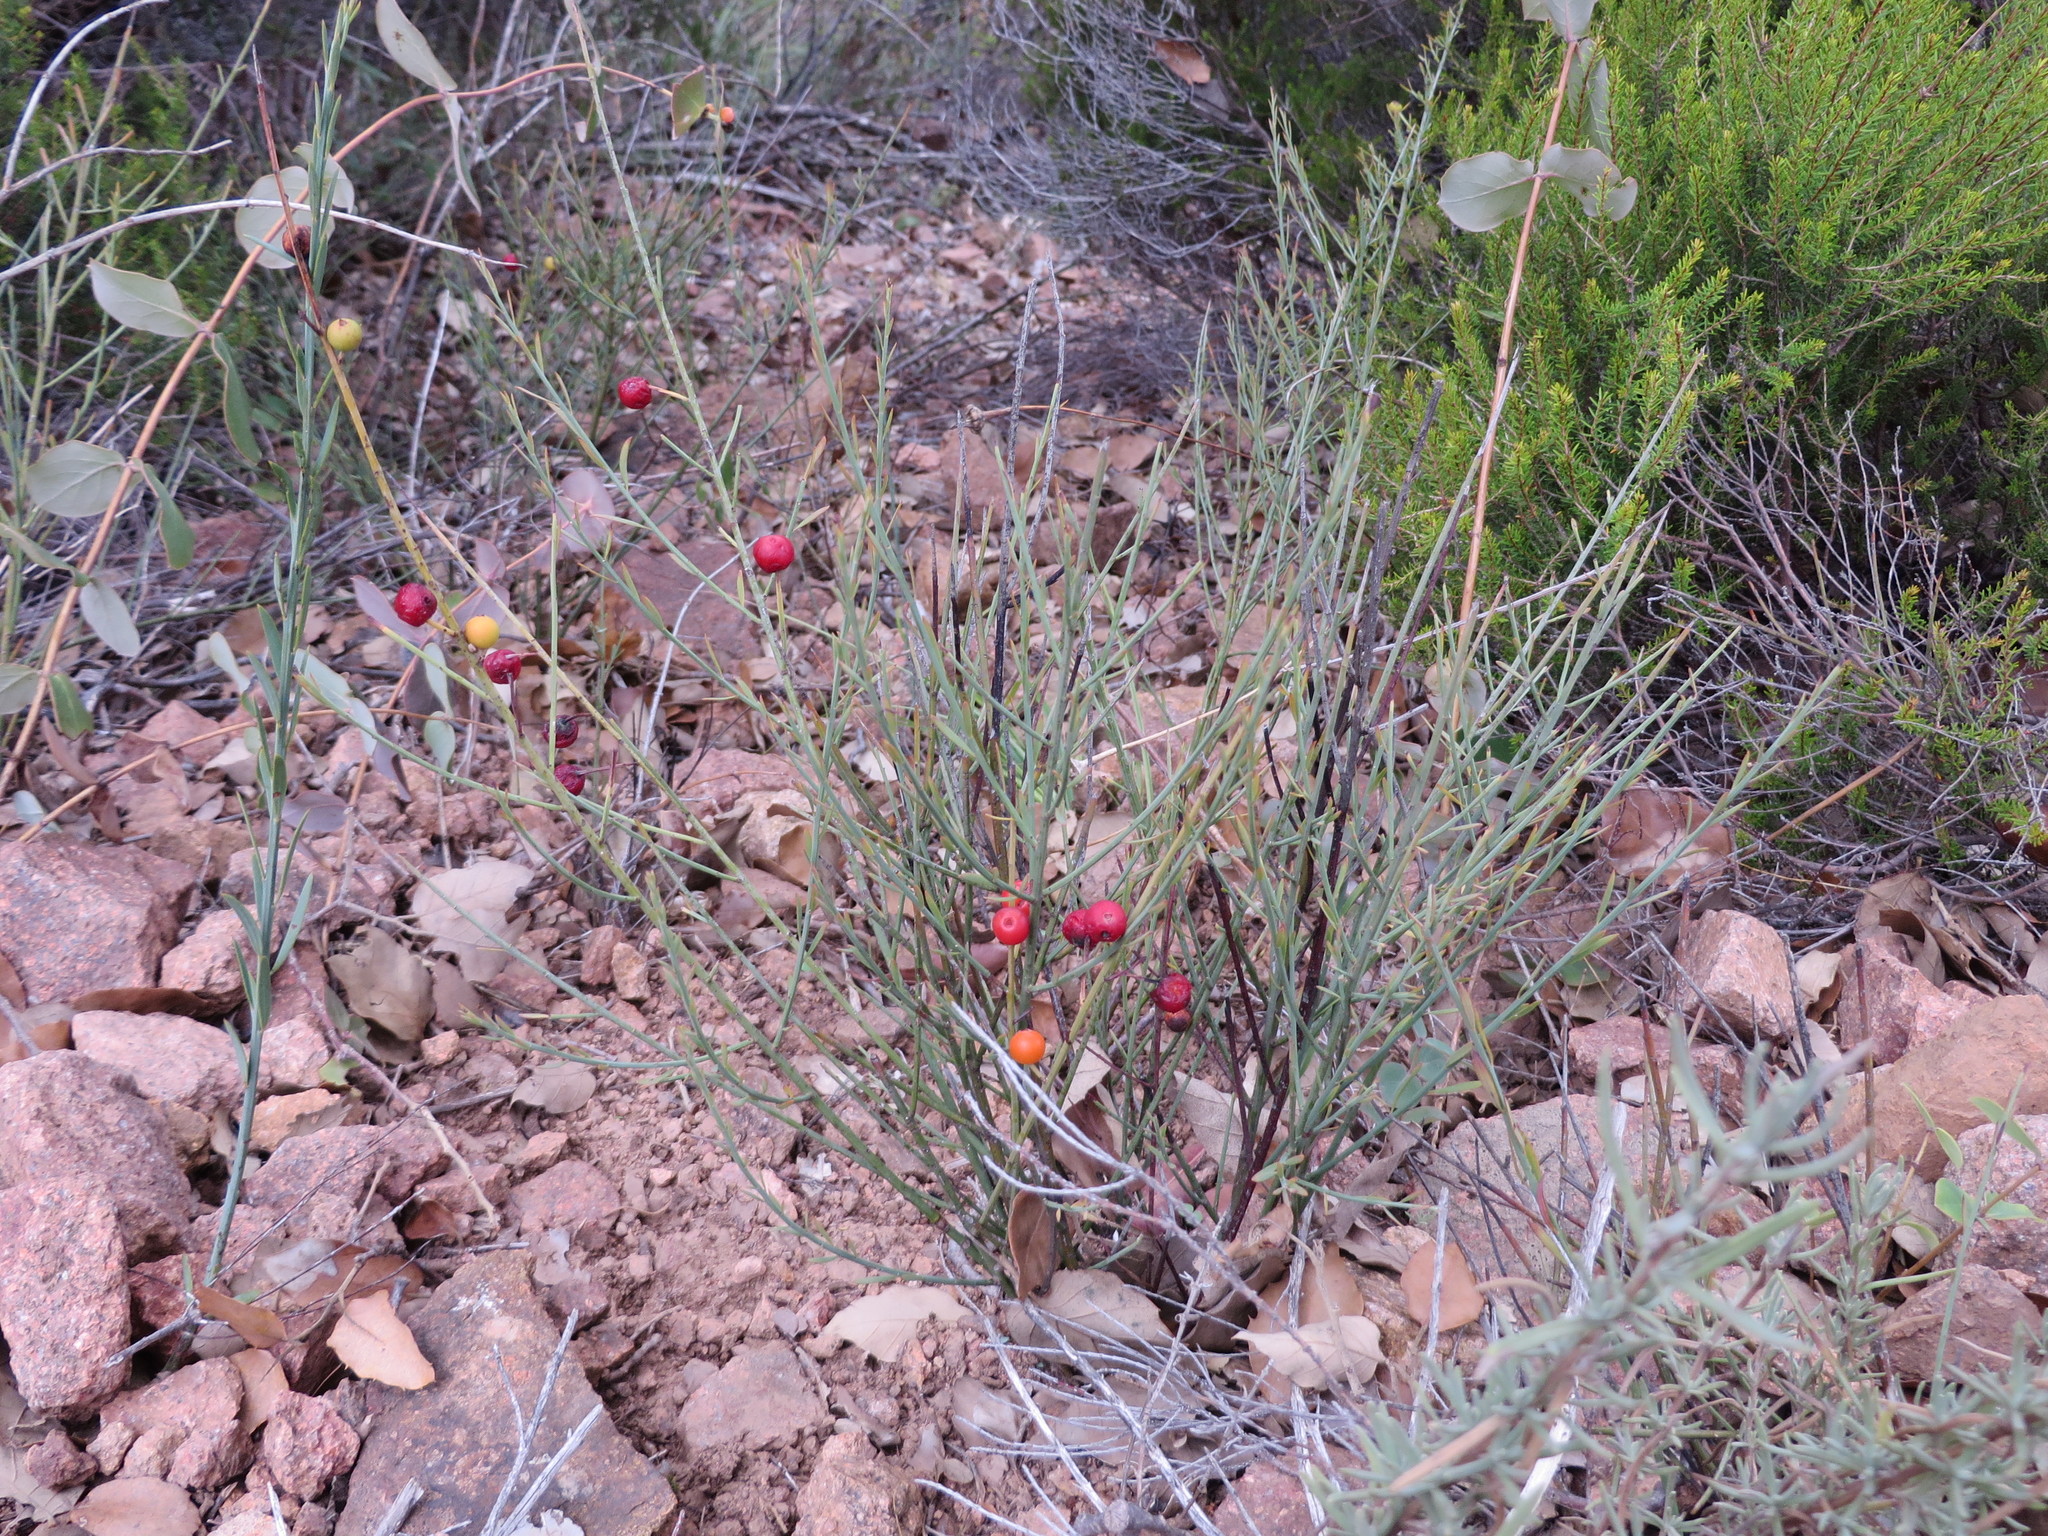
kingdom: Plantae
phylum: Tracheophyta
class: Magnoliopsida
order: Santalales
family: Santalaceae
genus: Osyris
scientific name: Osyris alba
